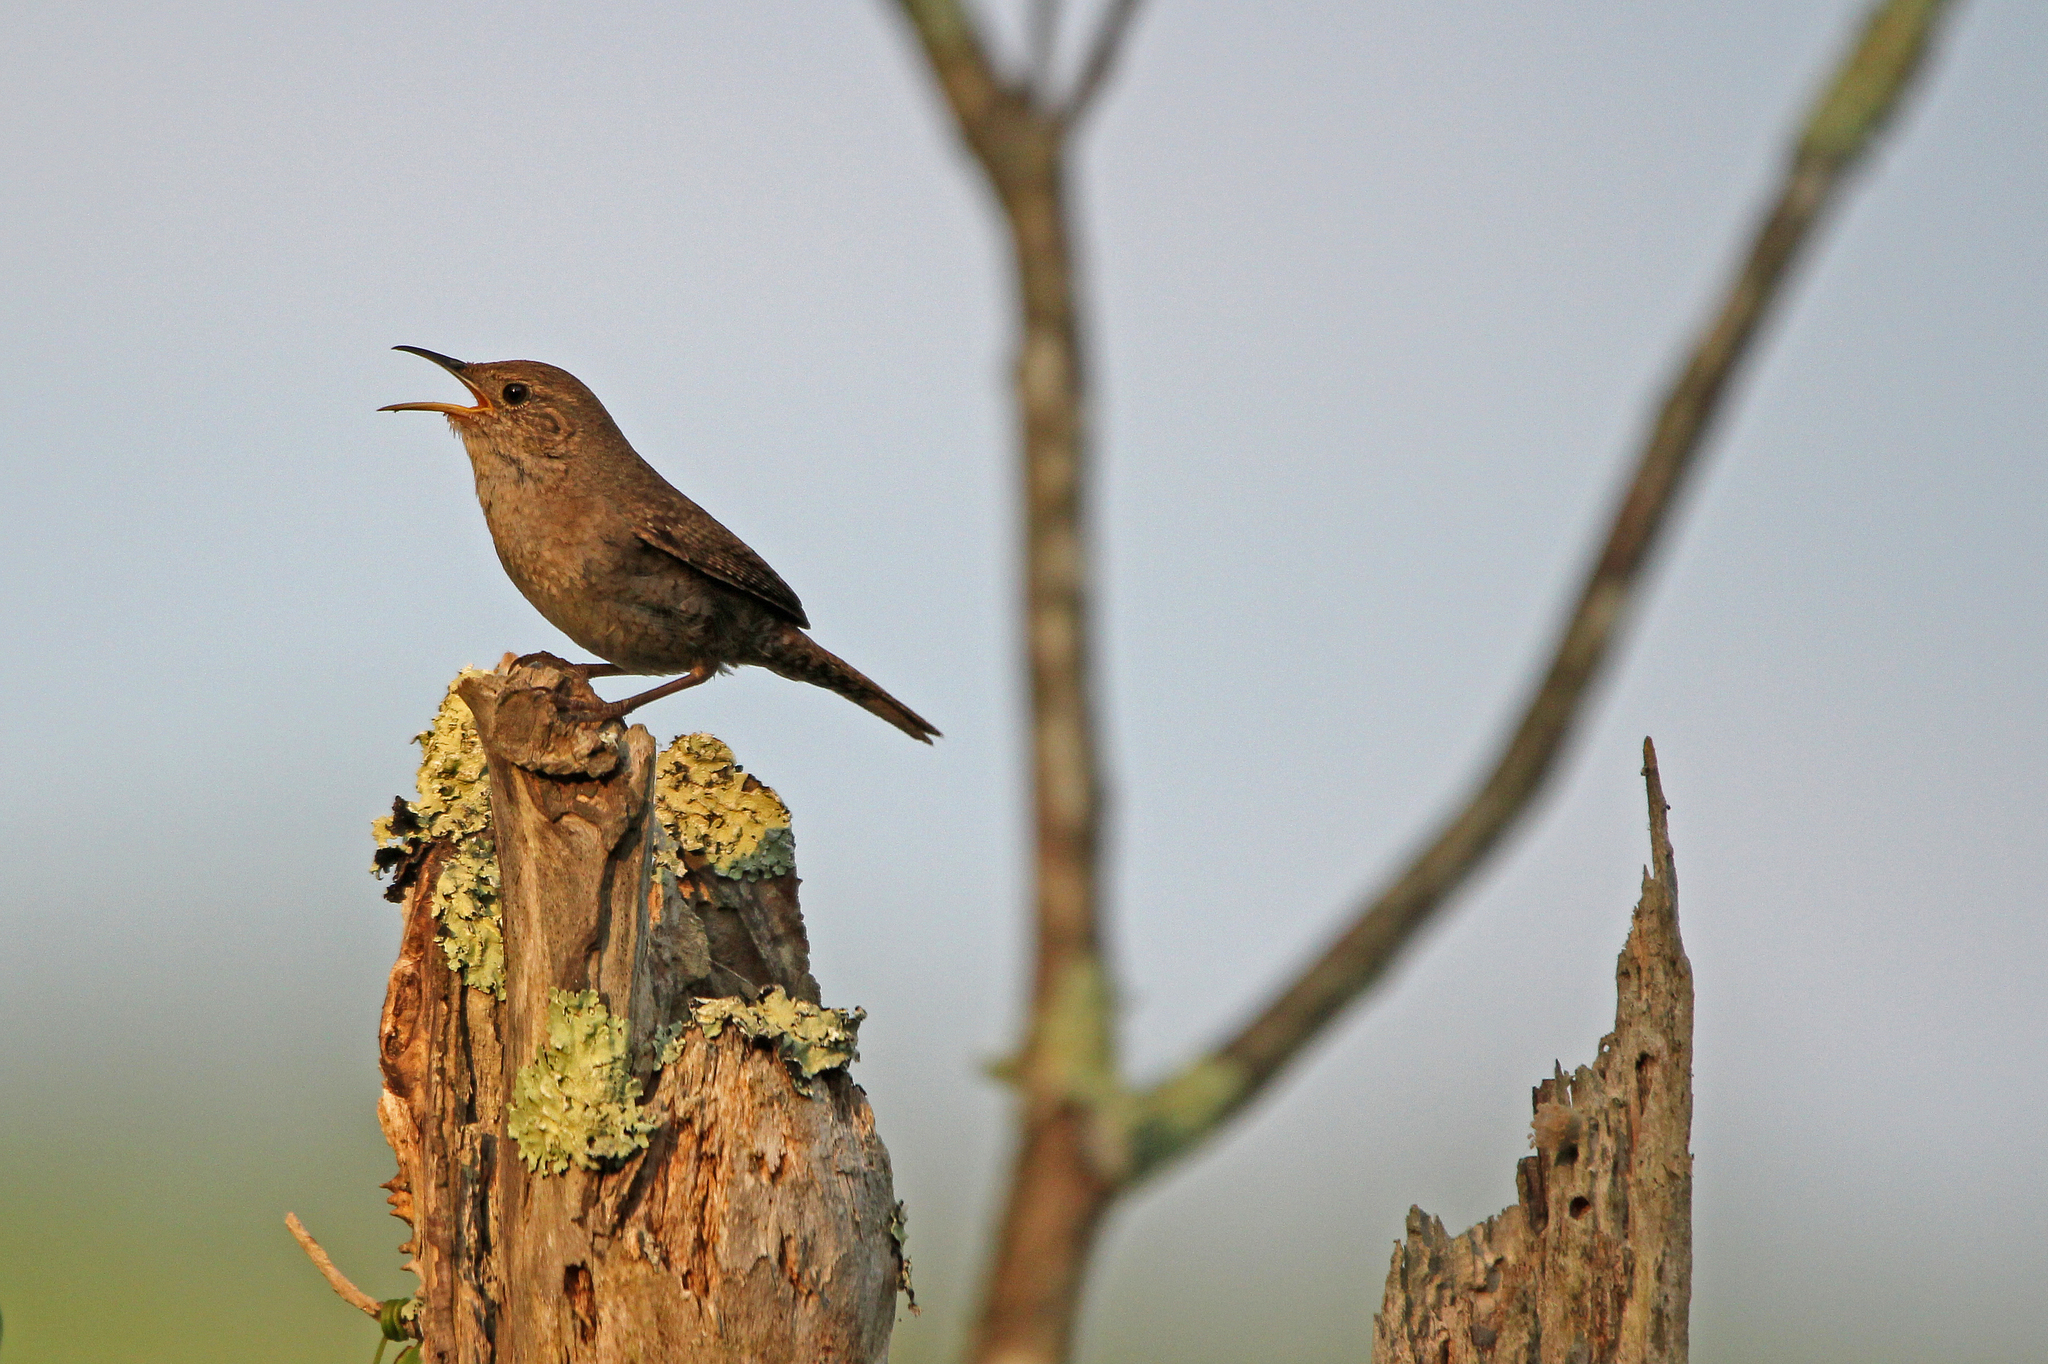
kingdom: Animalia
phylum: Chordata
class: Aves
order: Passeriformes
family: Troglodytidae
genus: Troglodytes
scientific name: Troglodytes aedon
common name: House wren
